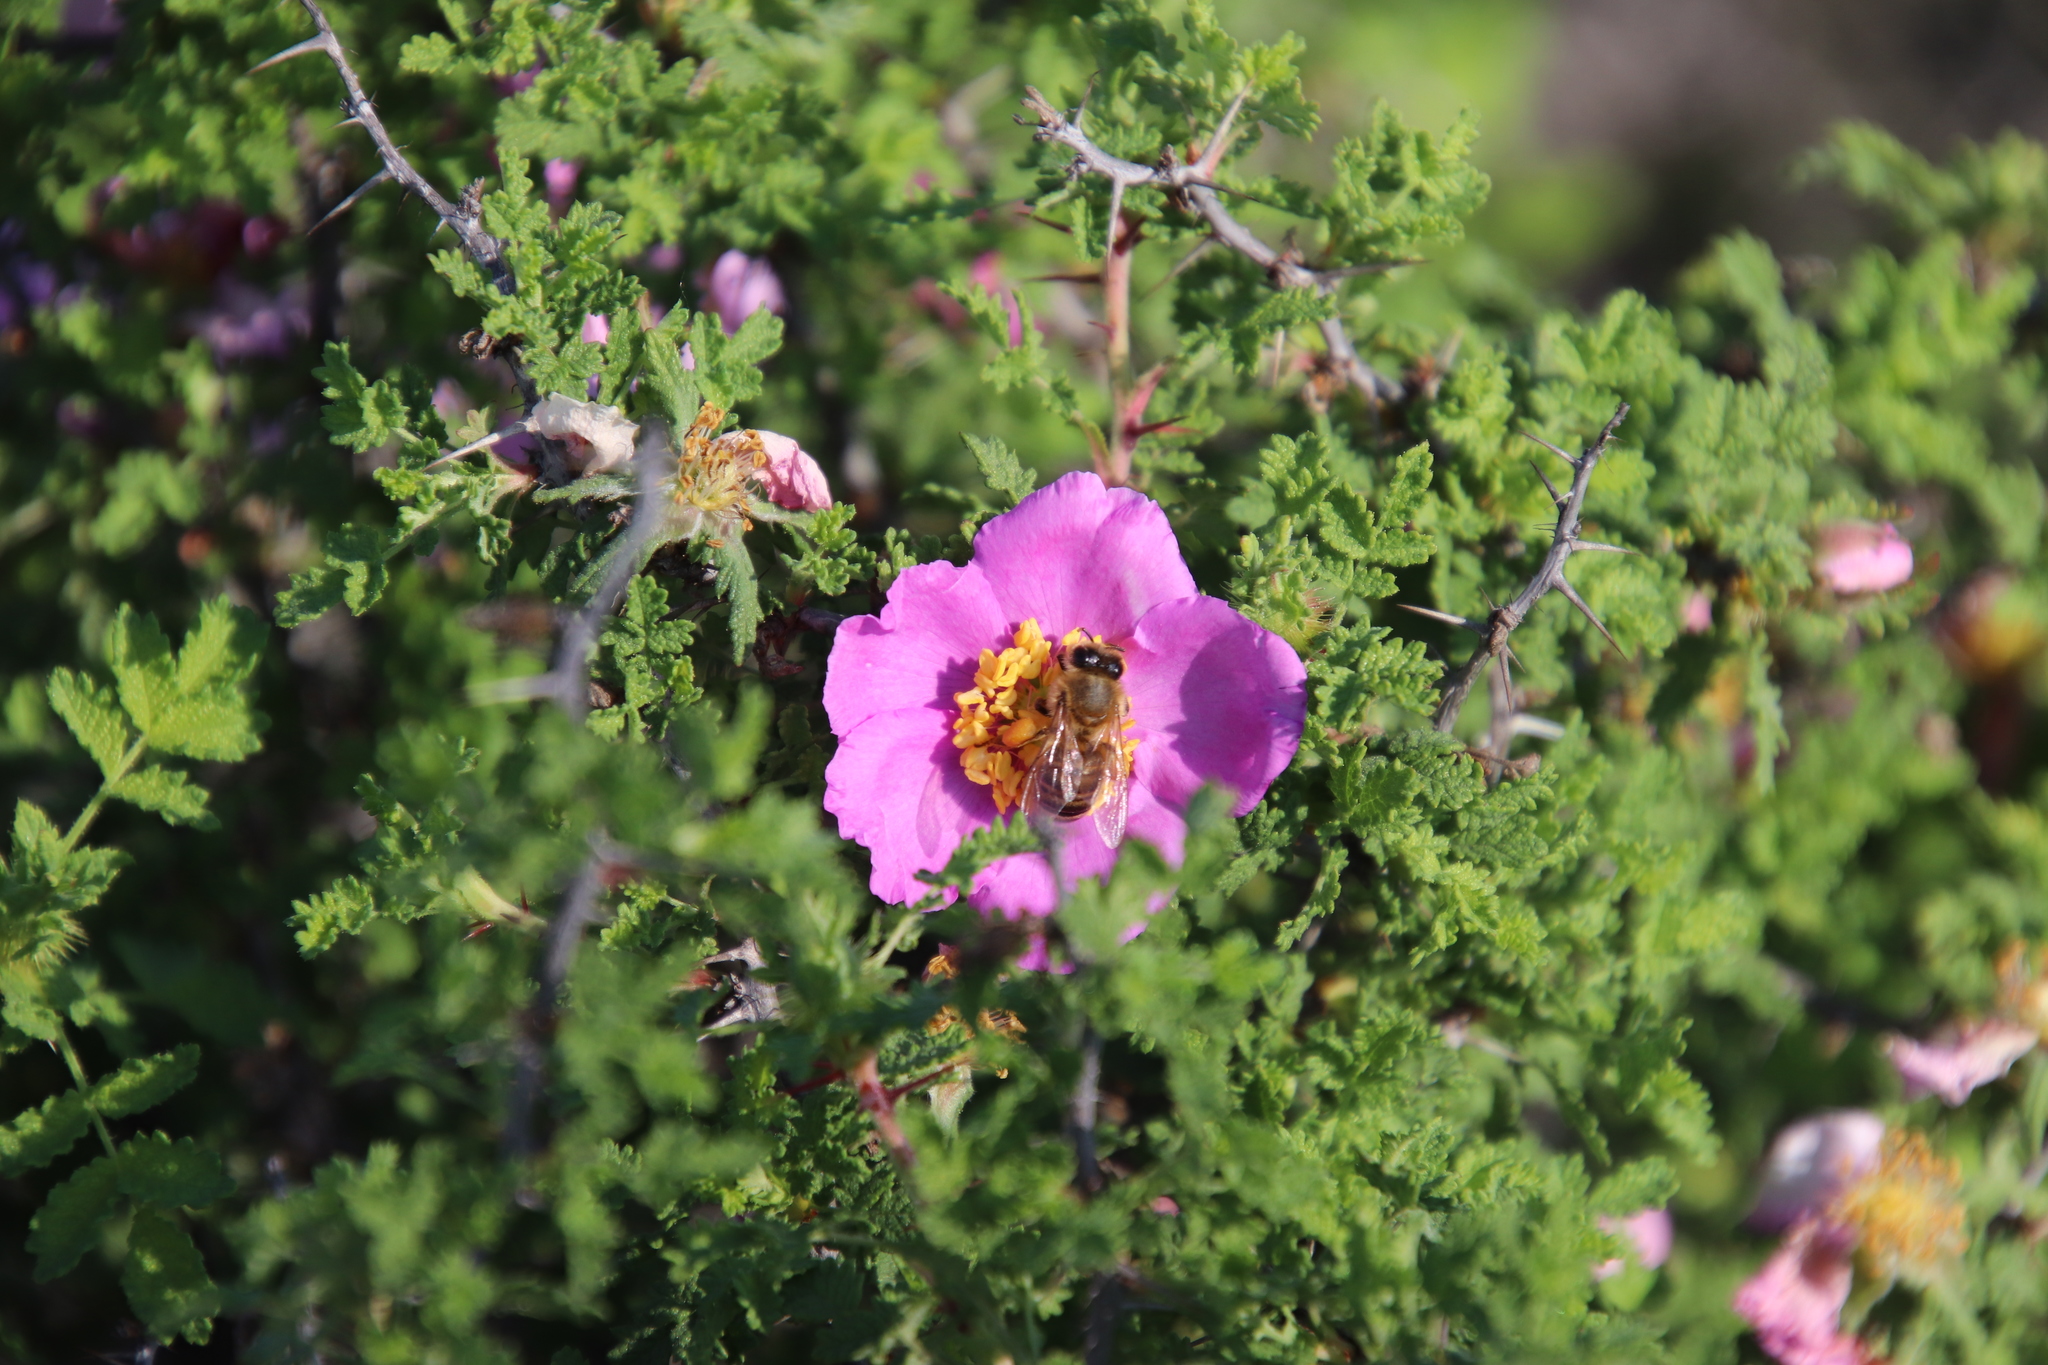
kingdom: Animalia
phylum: Arthropoda
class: Insecta
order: Hymenoptera
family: Apidae
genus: Apis
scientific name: Apis mellifera
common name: Honey bee
